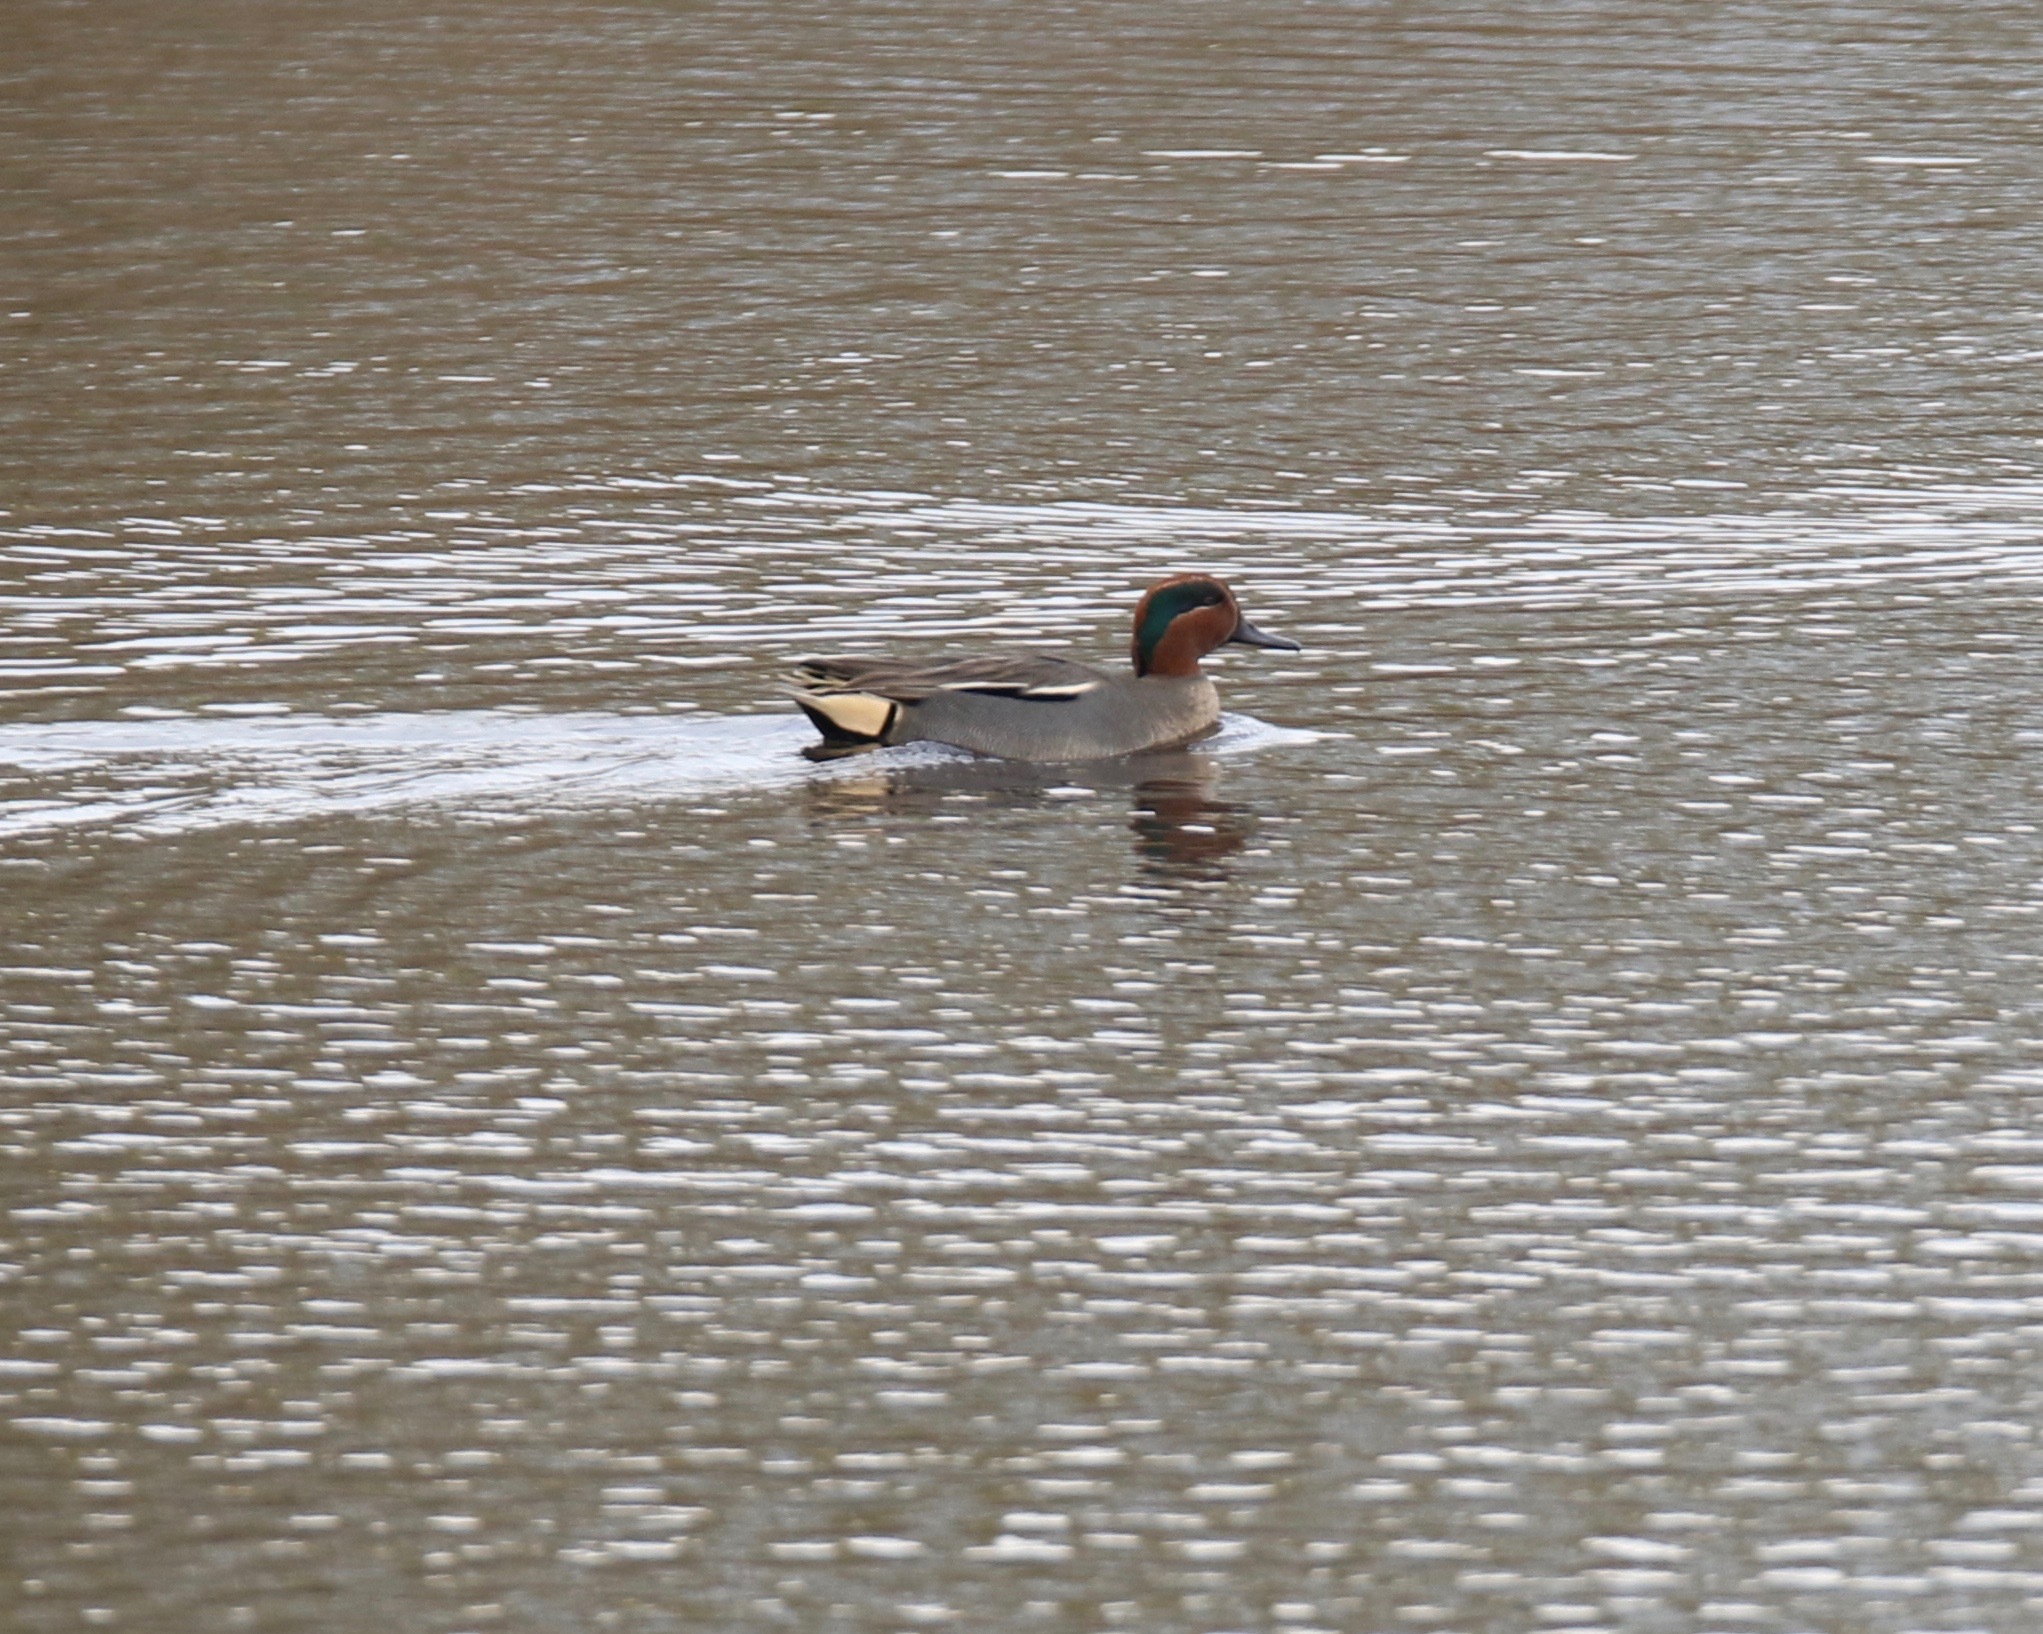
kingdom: Animalia
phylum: Chordata
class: Aves
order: Anseriformes
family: Anatidae
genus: Anas
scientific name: Anas crecca
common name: Eurasian teal
